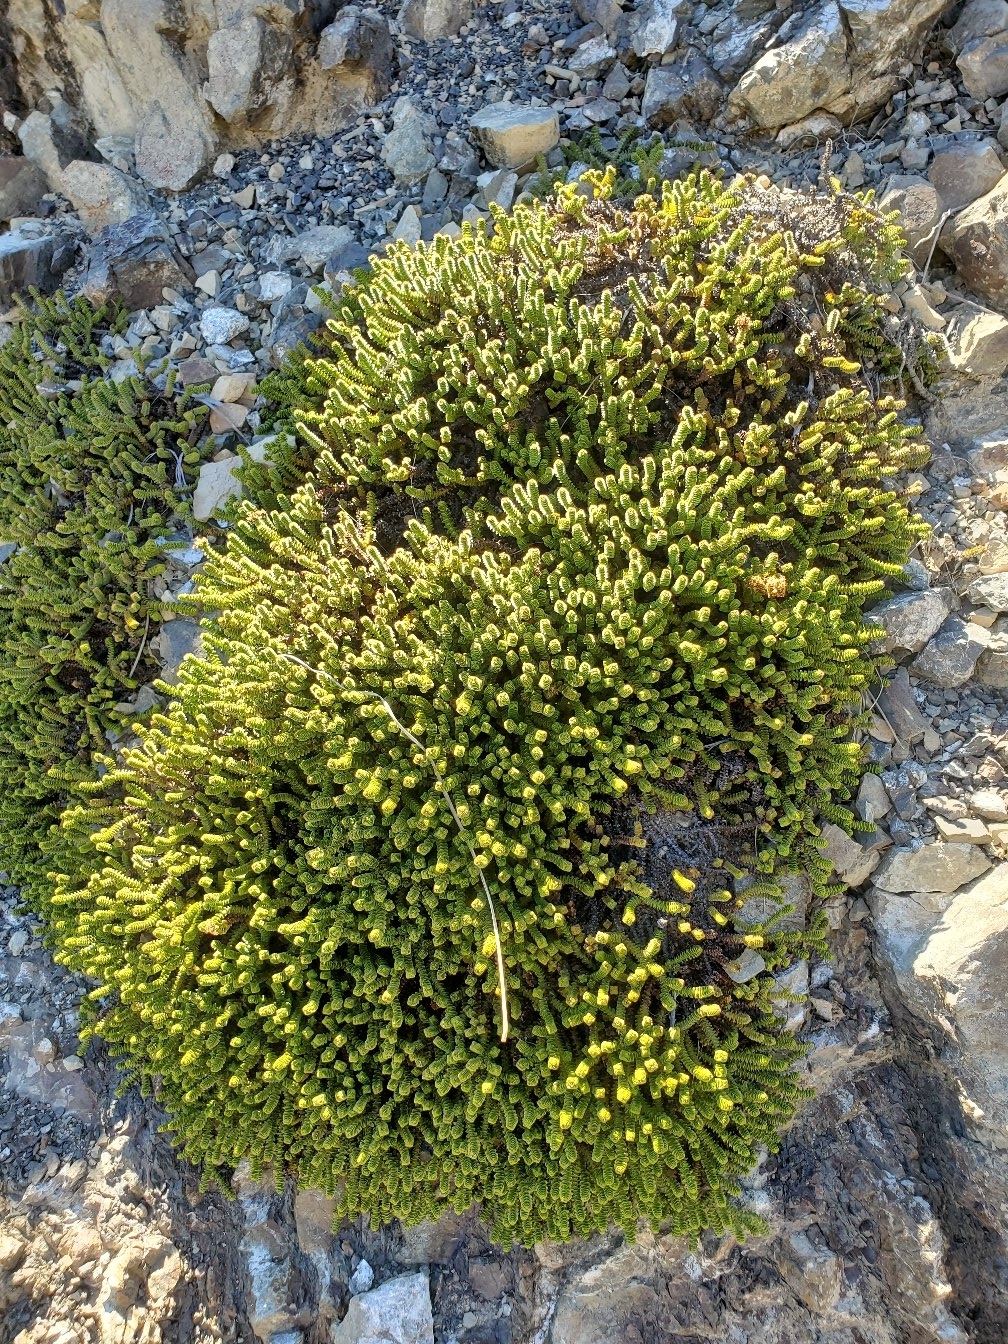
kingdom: Plantae
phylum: Tracheophyta
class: Magnoliopsida
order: Lamiales
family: Plantaginaceae
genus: Veronica
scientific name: Veronica epacridea
